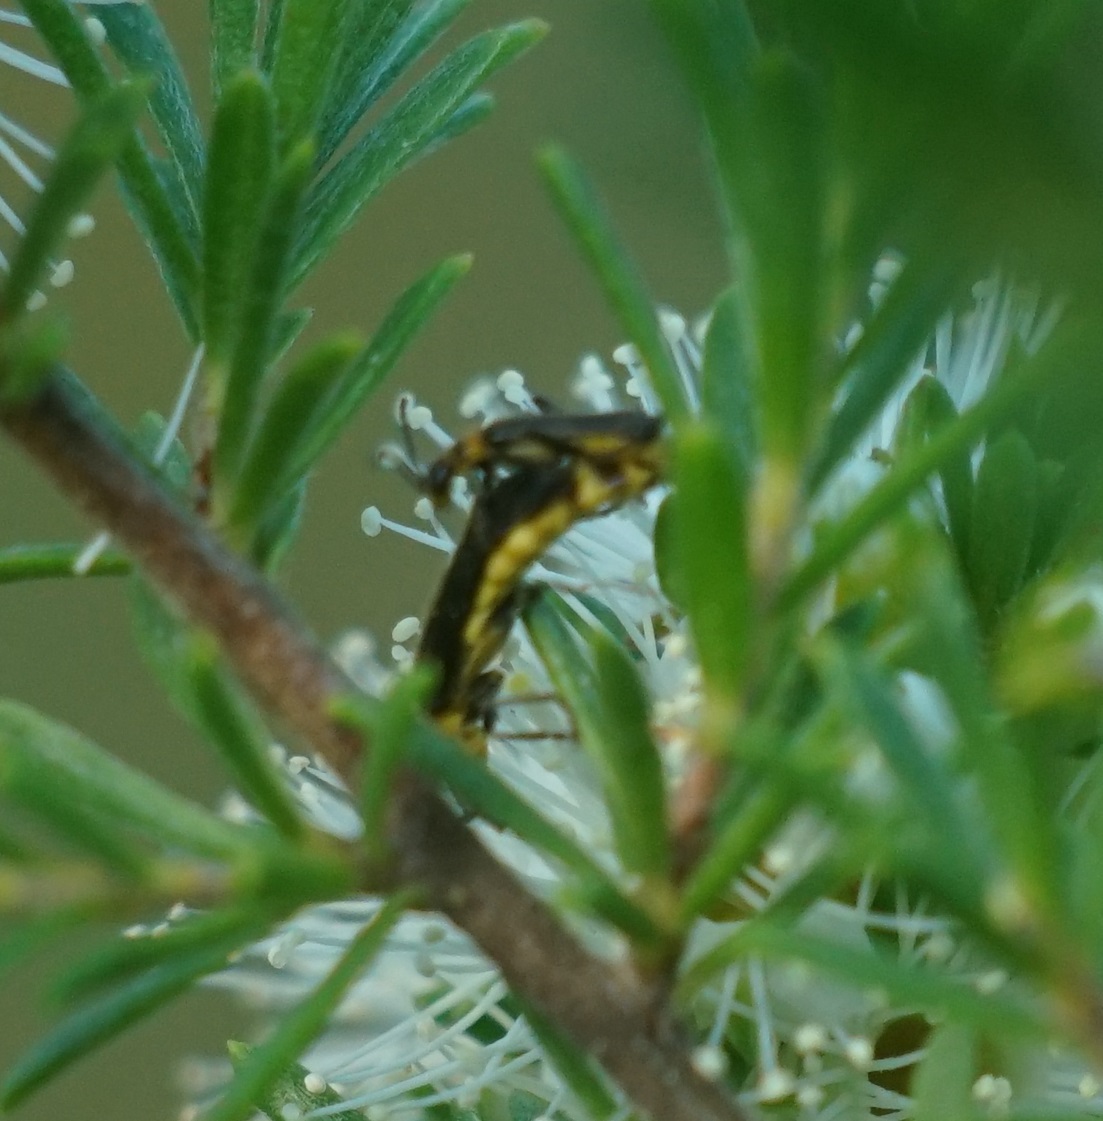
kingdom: Animalia
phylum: Arthropoda
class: Insecta
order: Coleoptera
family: Cantharidae
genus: Chauliognathus
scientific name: Chauliognathus
